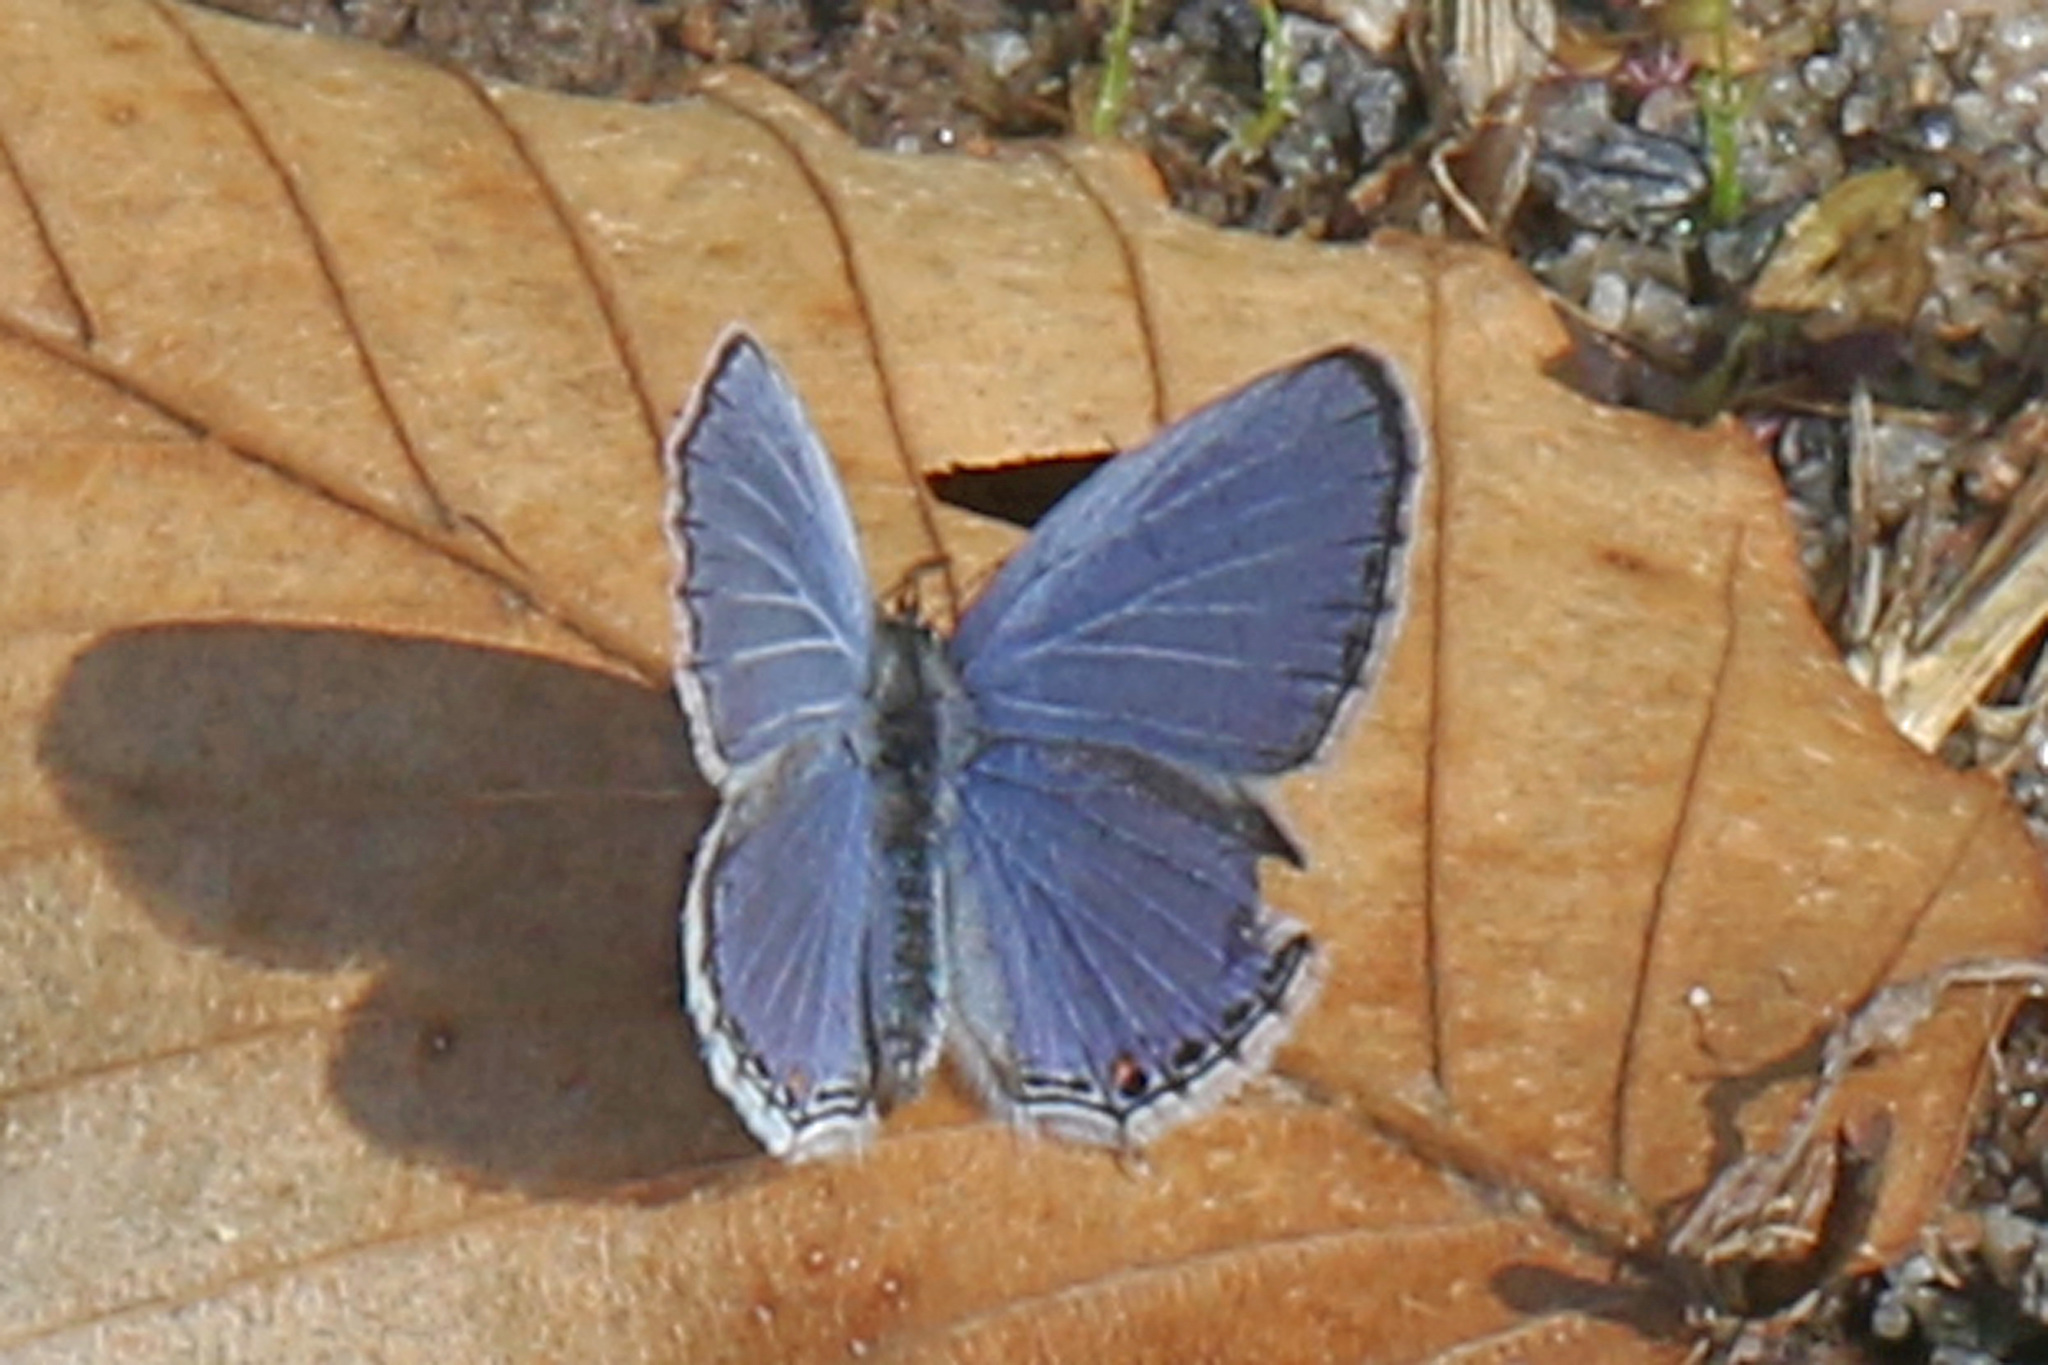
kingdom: Animalia
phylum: Arthropoda
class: Insecta
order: Lepidoptera
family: Lycaenidae
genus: Elkalyce
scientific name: Elkalyce comyntas
